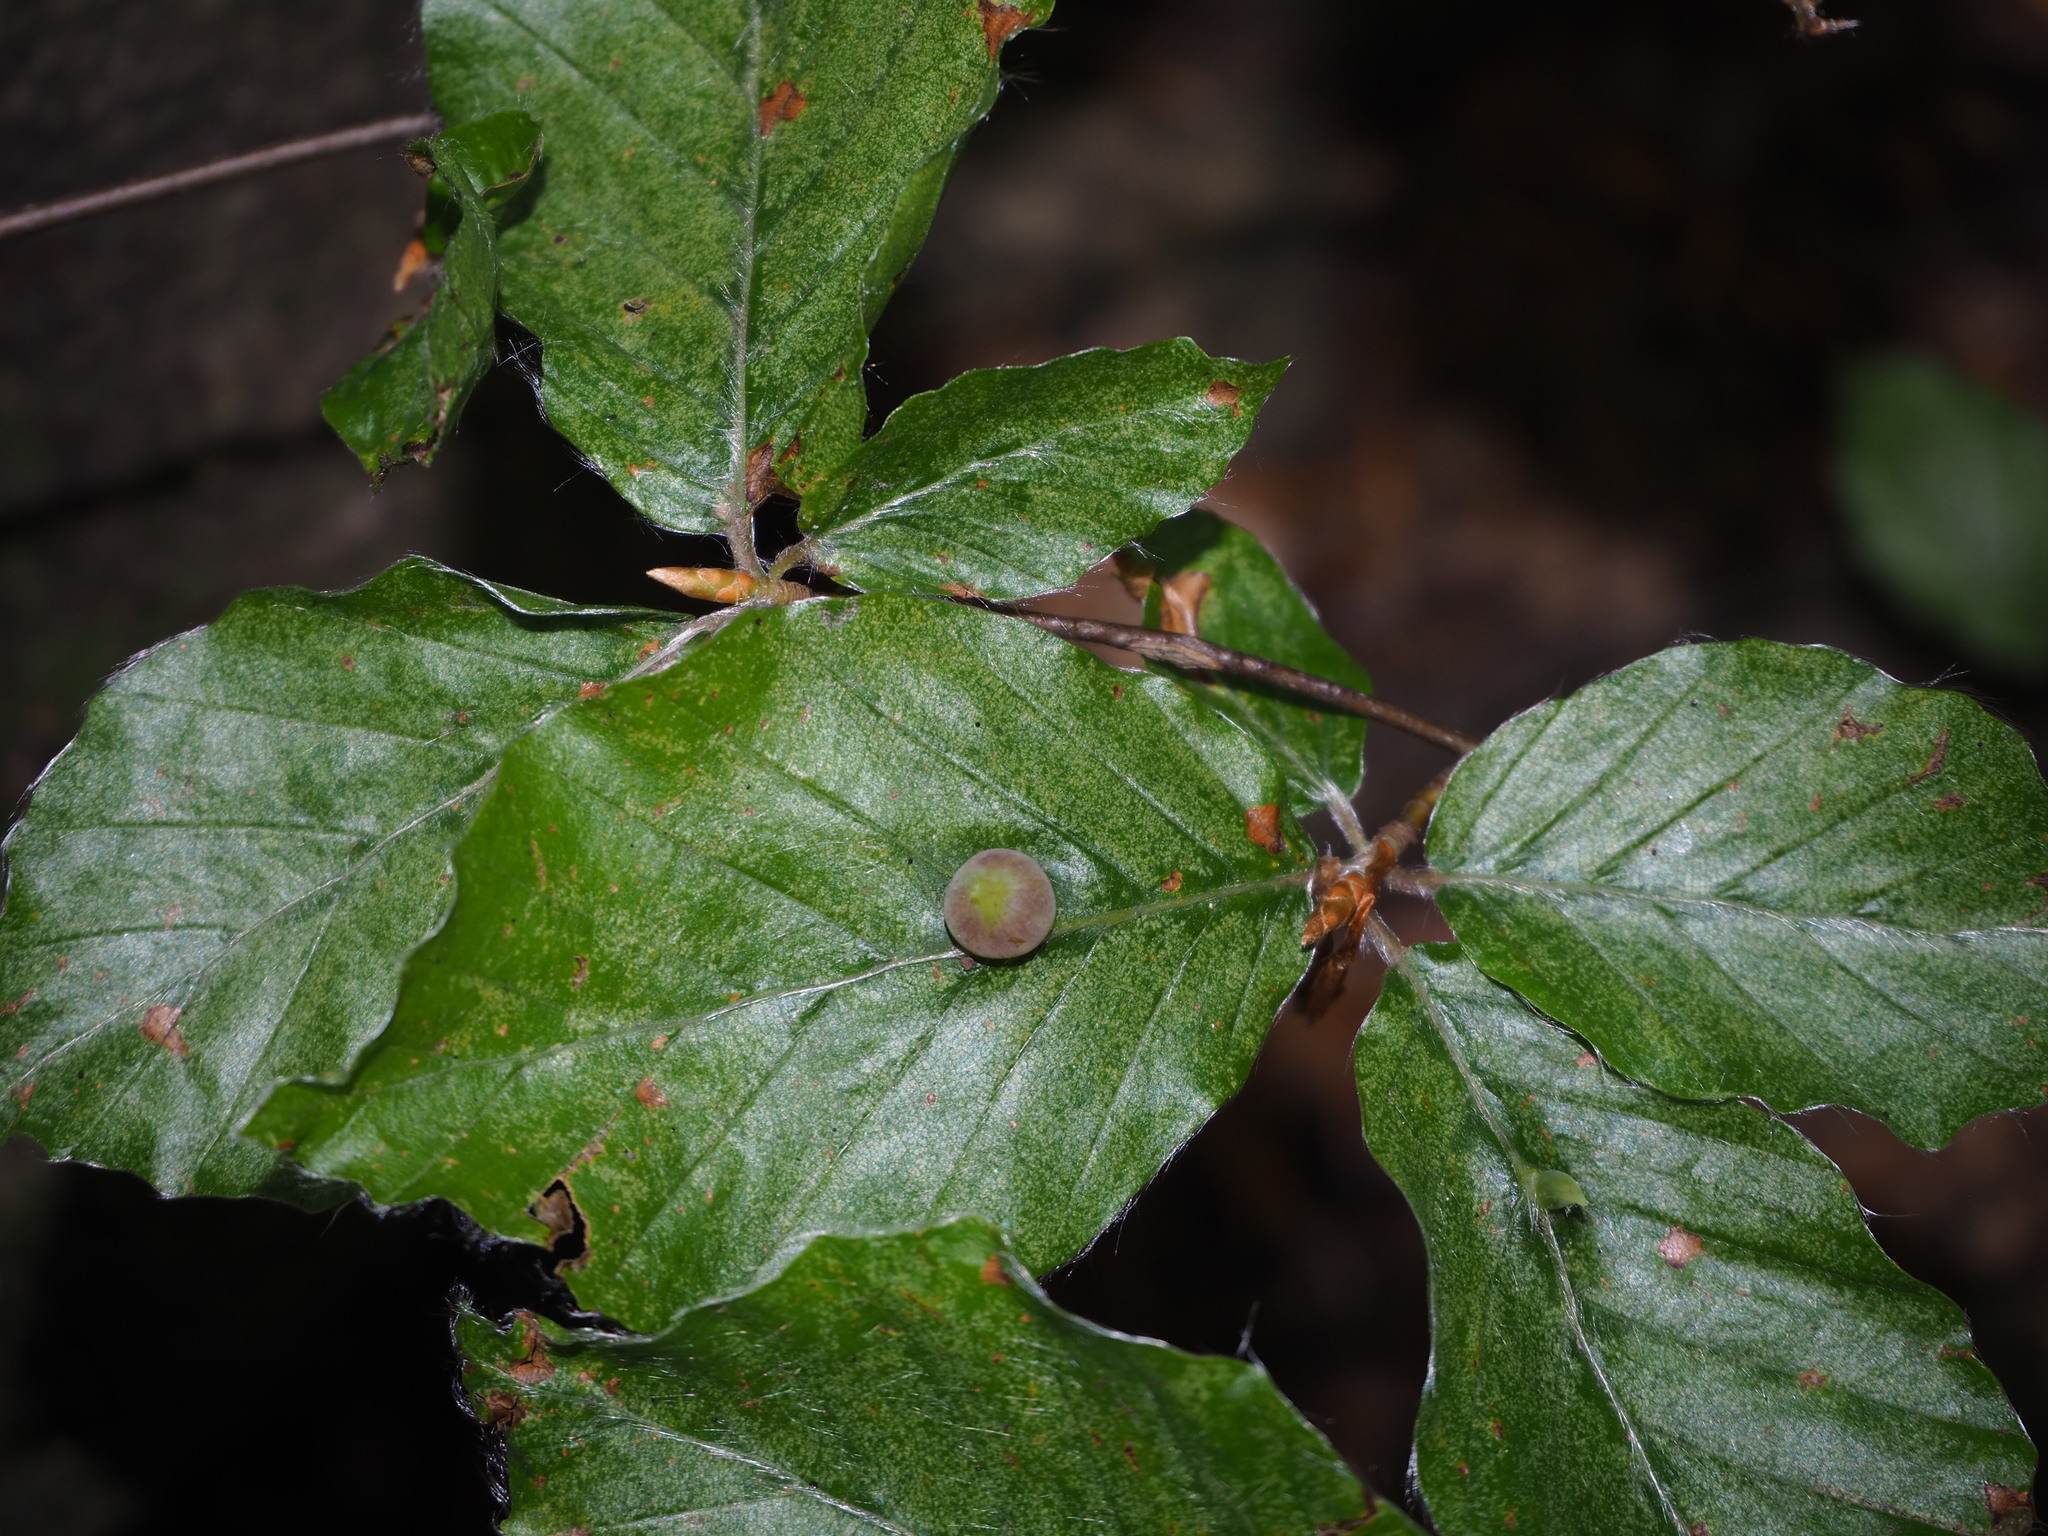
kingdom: Animalia
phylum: Arthropoda
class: Insecta
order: Diptera
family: Cecidomyiidae
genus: Mikiola
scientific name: Mikiola fagi
